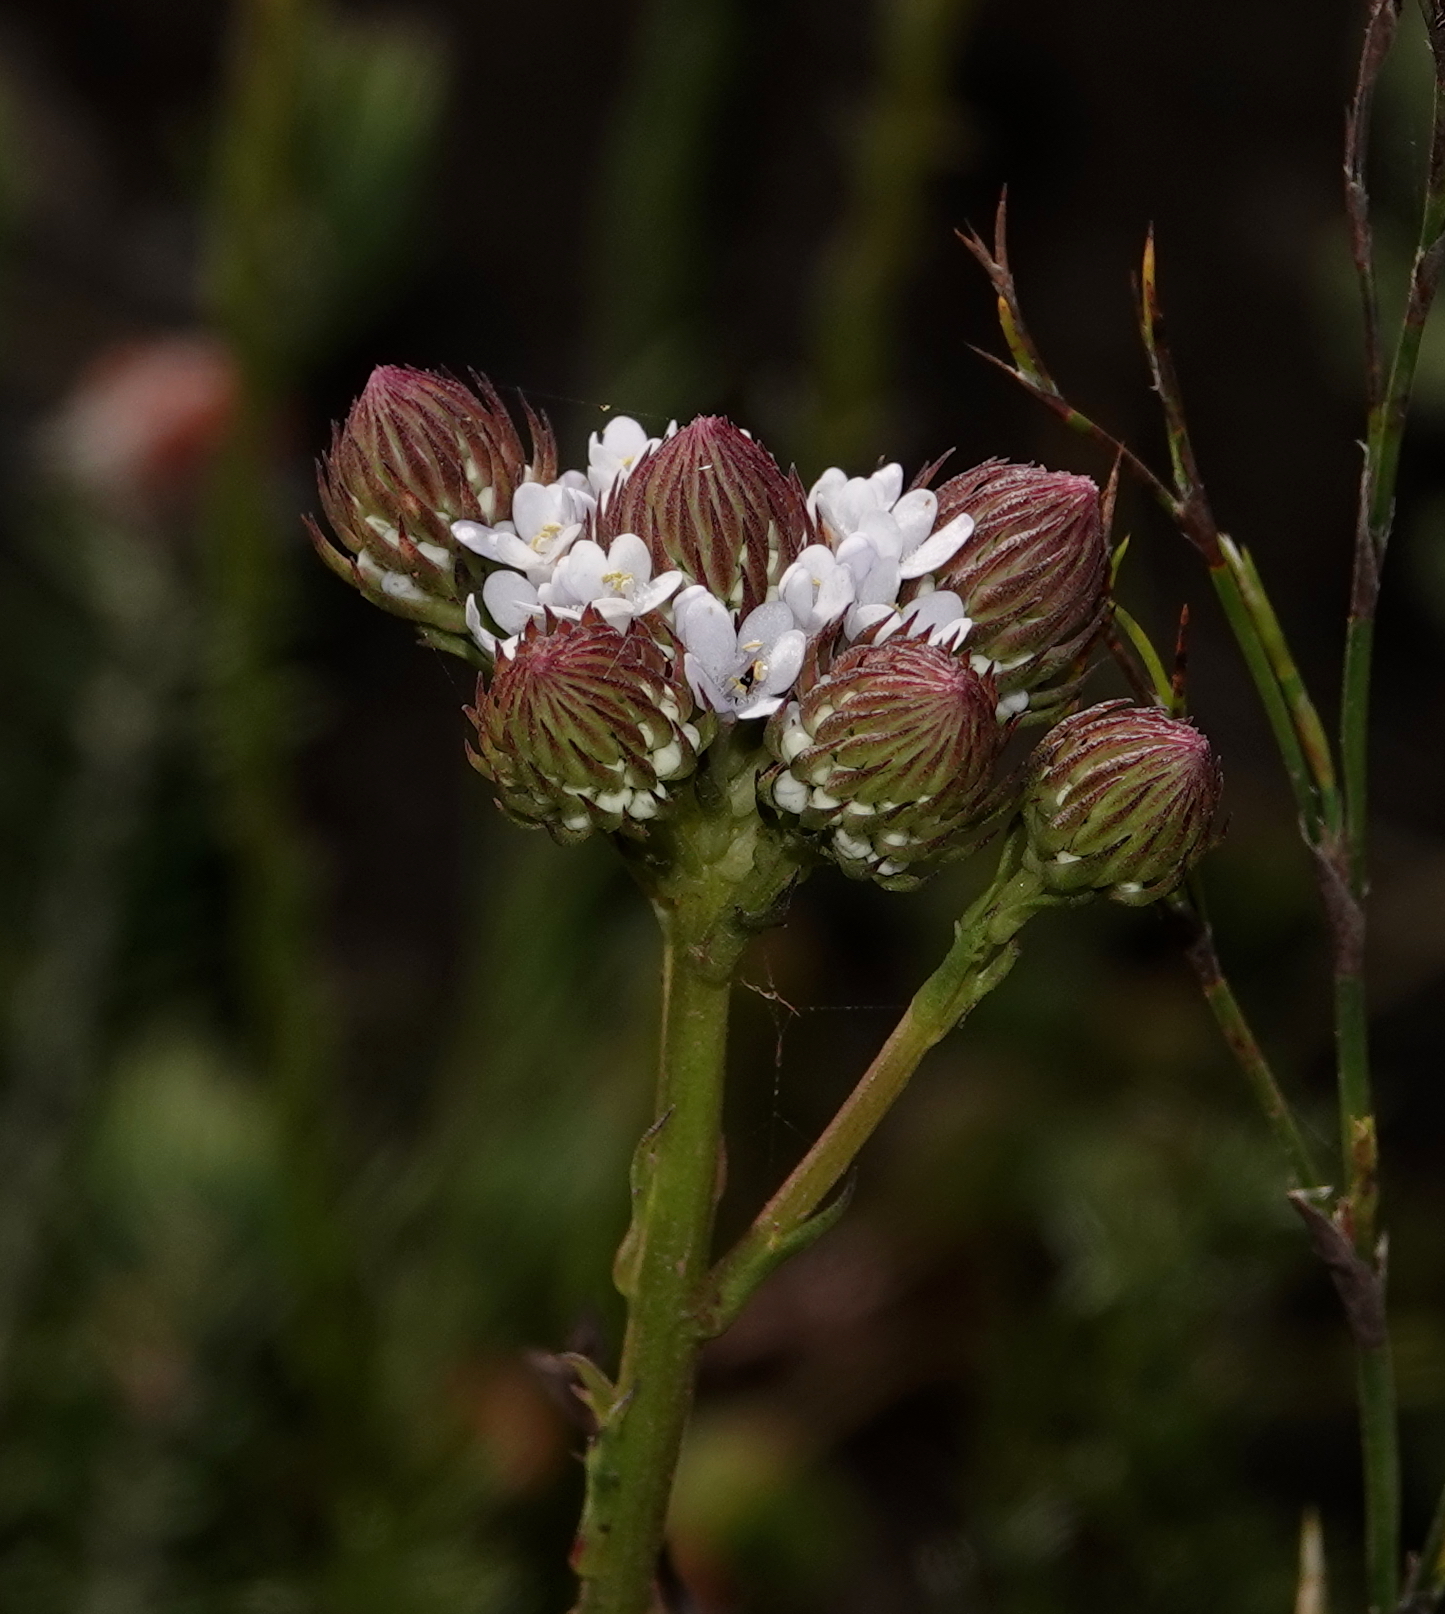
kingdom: Plantae
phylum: Tracheophyta
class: Magnoliopsida
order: Lamiales
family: Scrophulariaceae
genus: Pseudoselago
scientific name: Pseudoselago spuria
